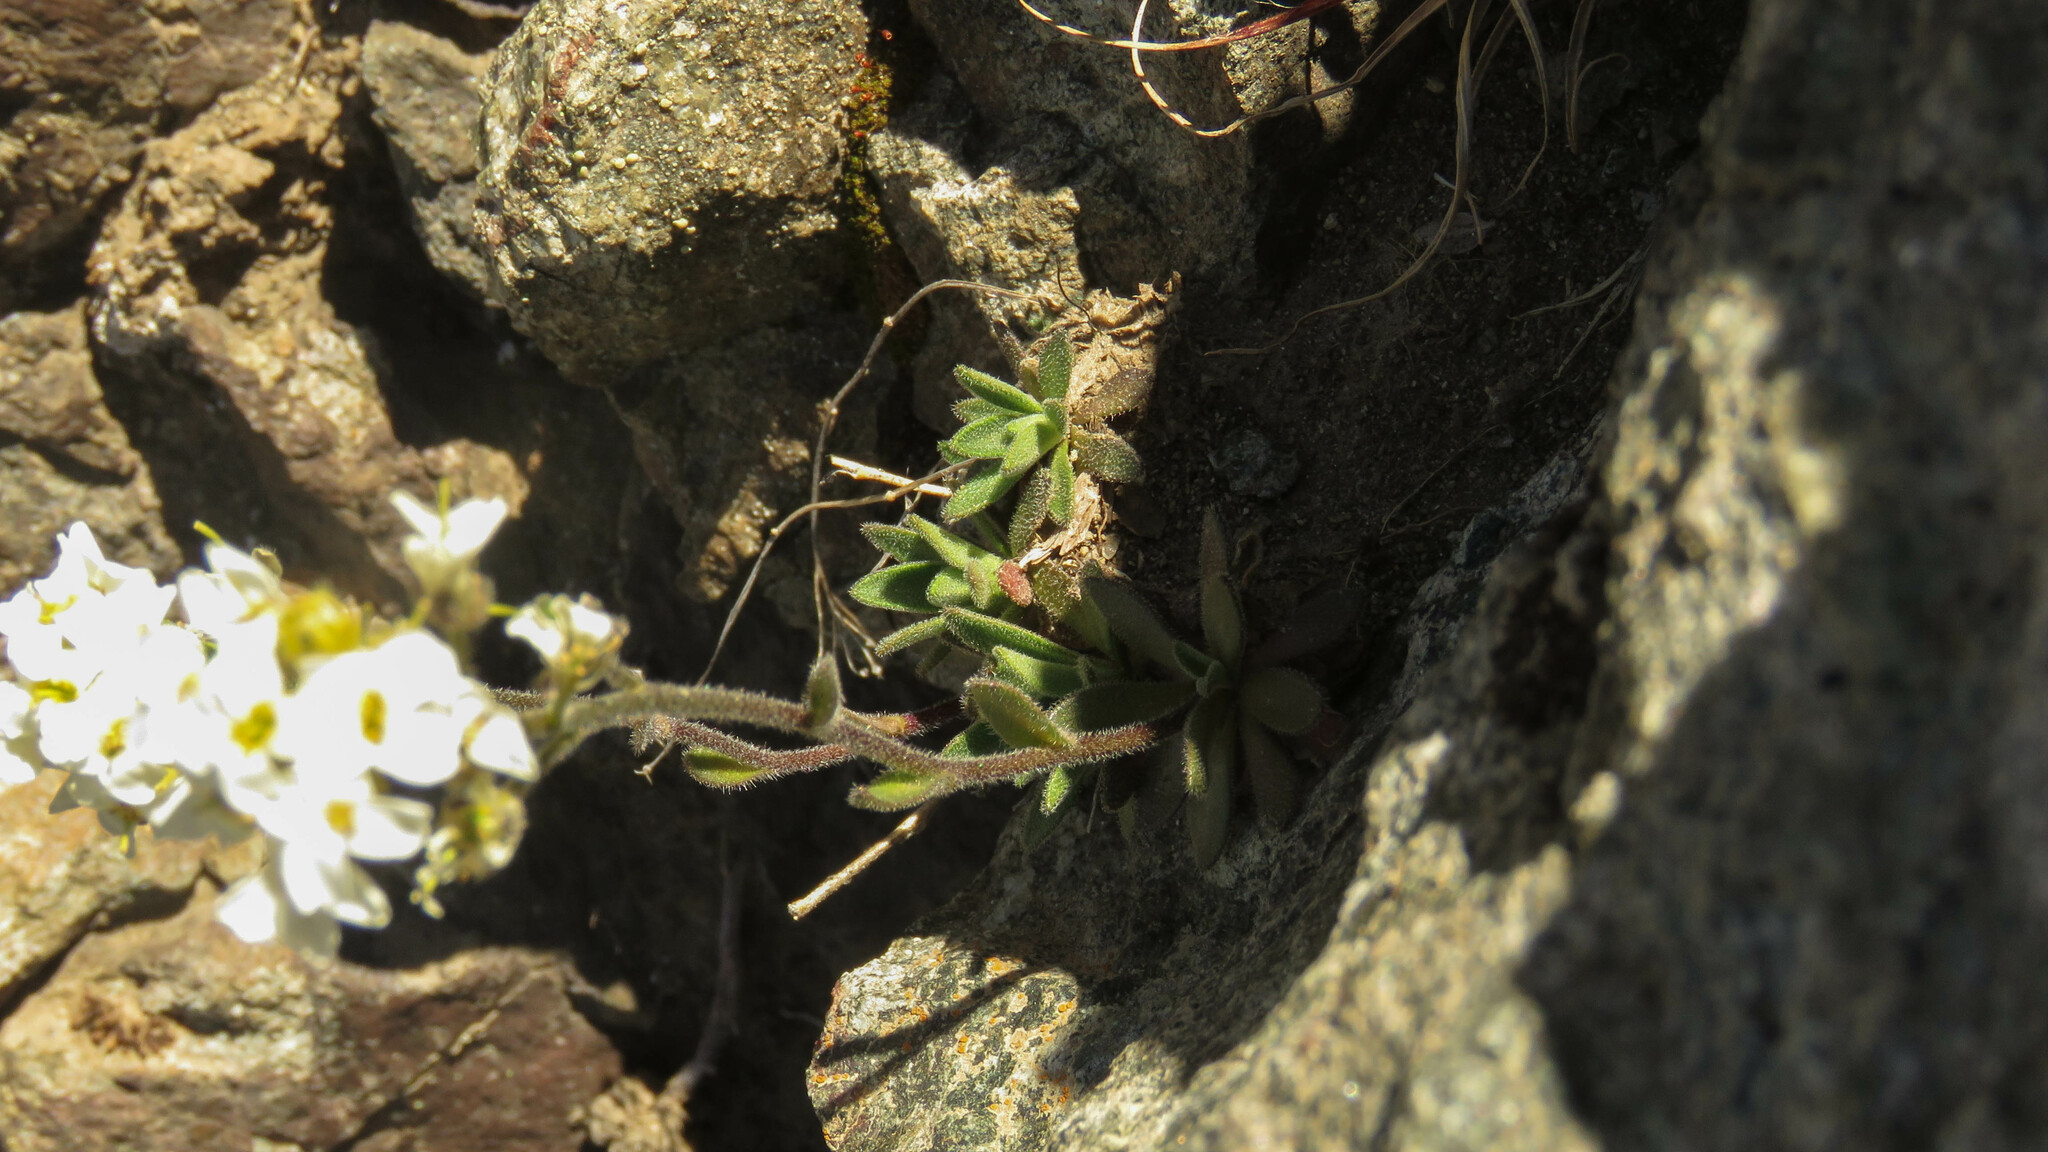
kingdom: Plantae
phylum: Tracheophyta
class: Magnoliopsida
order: Brassicales
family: Brassicaceae
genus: Draba
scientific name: Draba gilliesii
